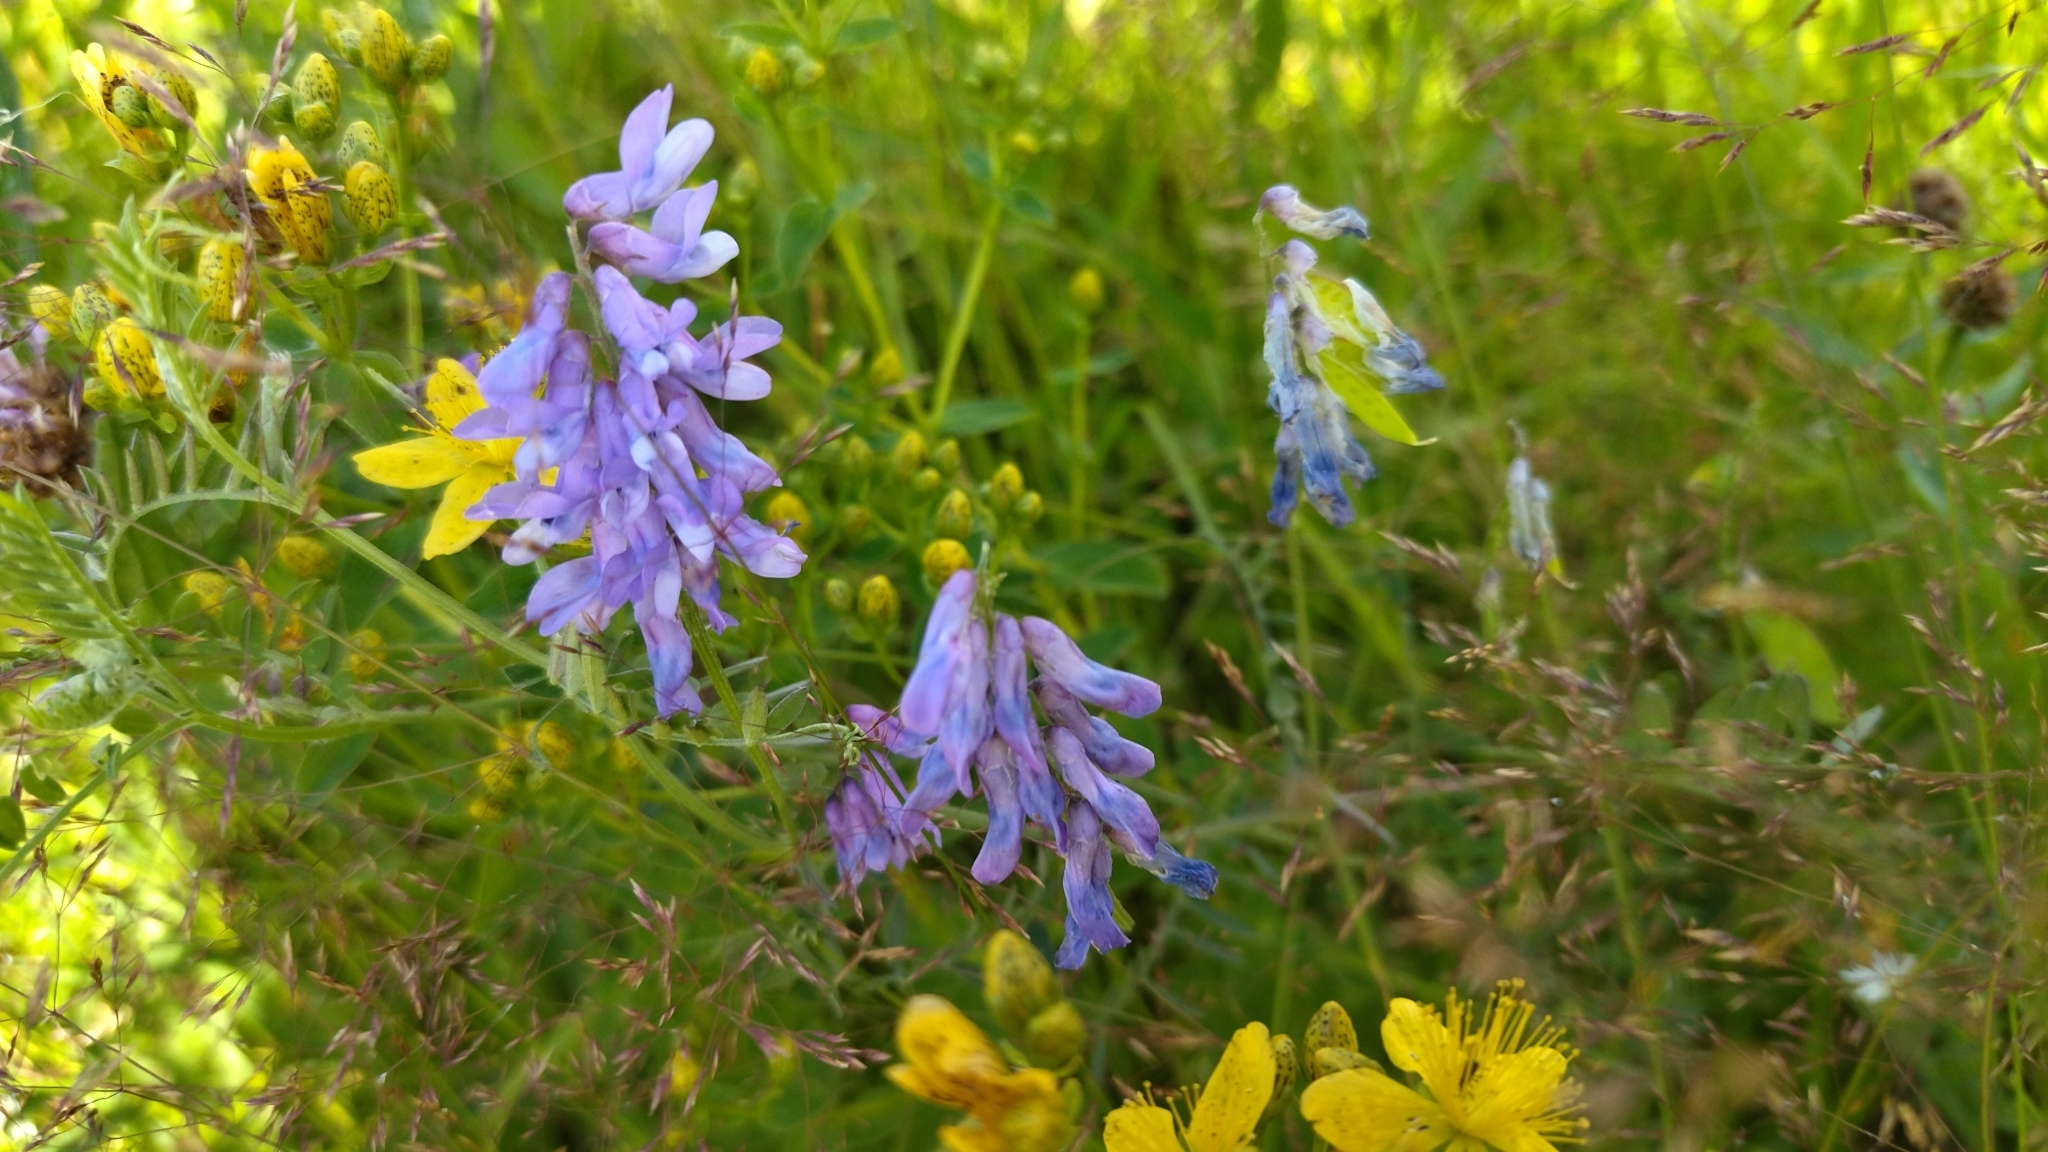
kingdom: Plantae
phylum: Tracheophyta
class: Magnoliopsida
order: Fabales
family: Fabaceae
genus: Vicia
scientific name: Vicia cracca
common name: Bird vetch
